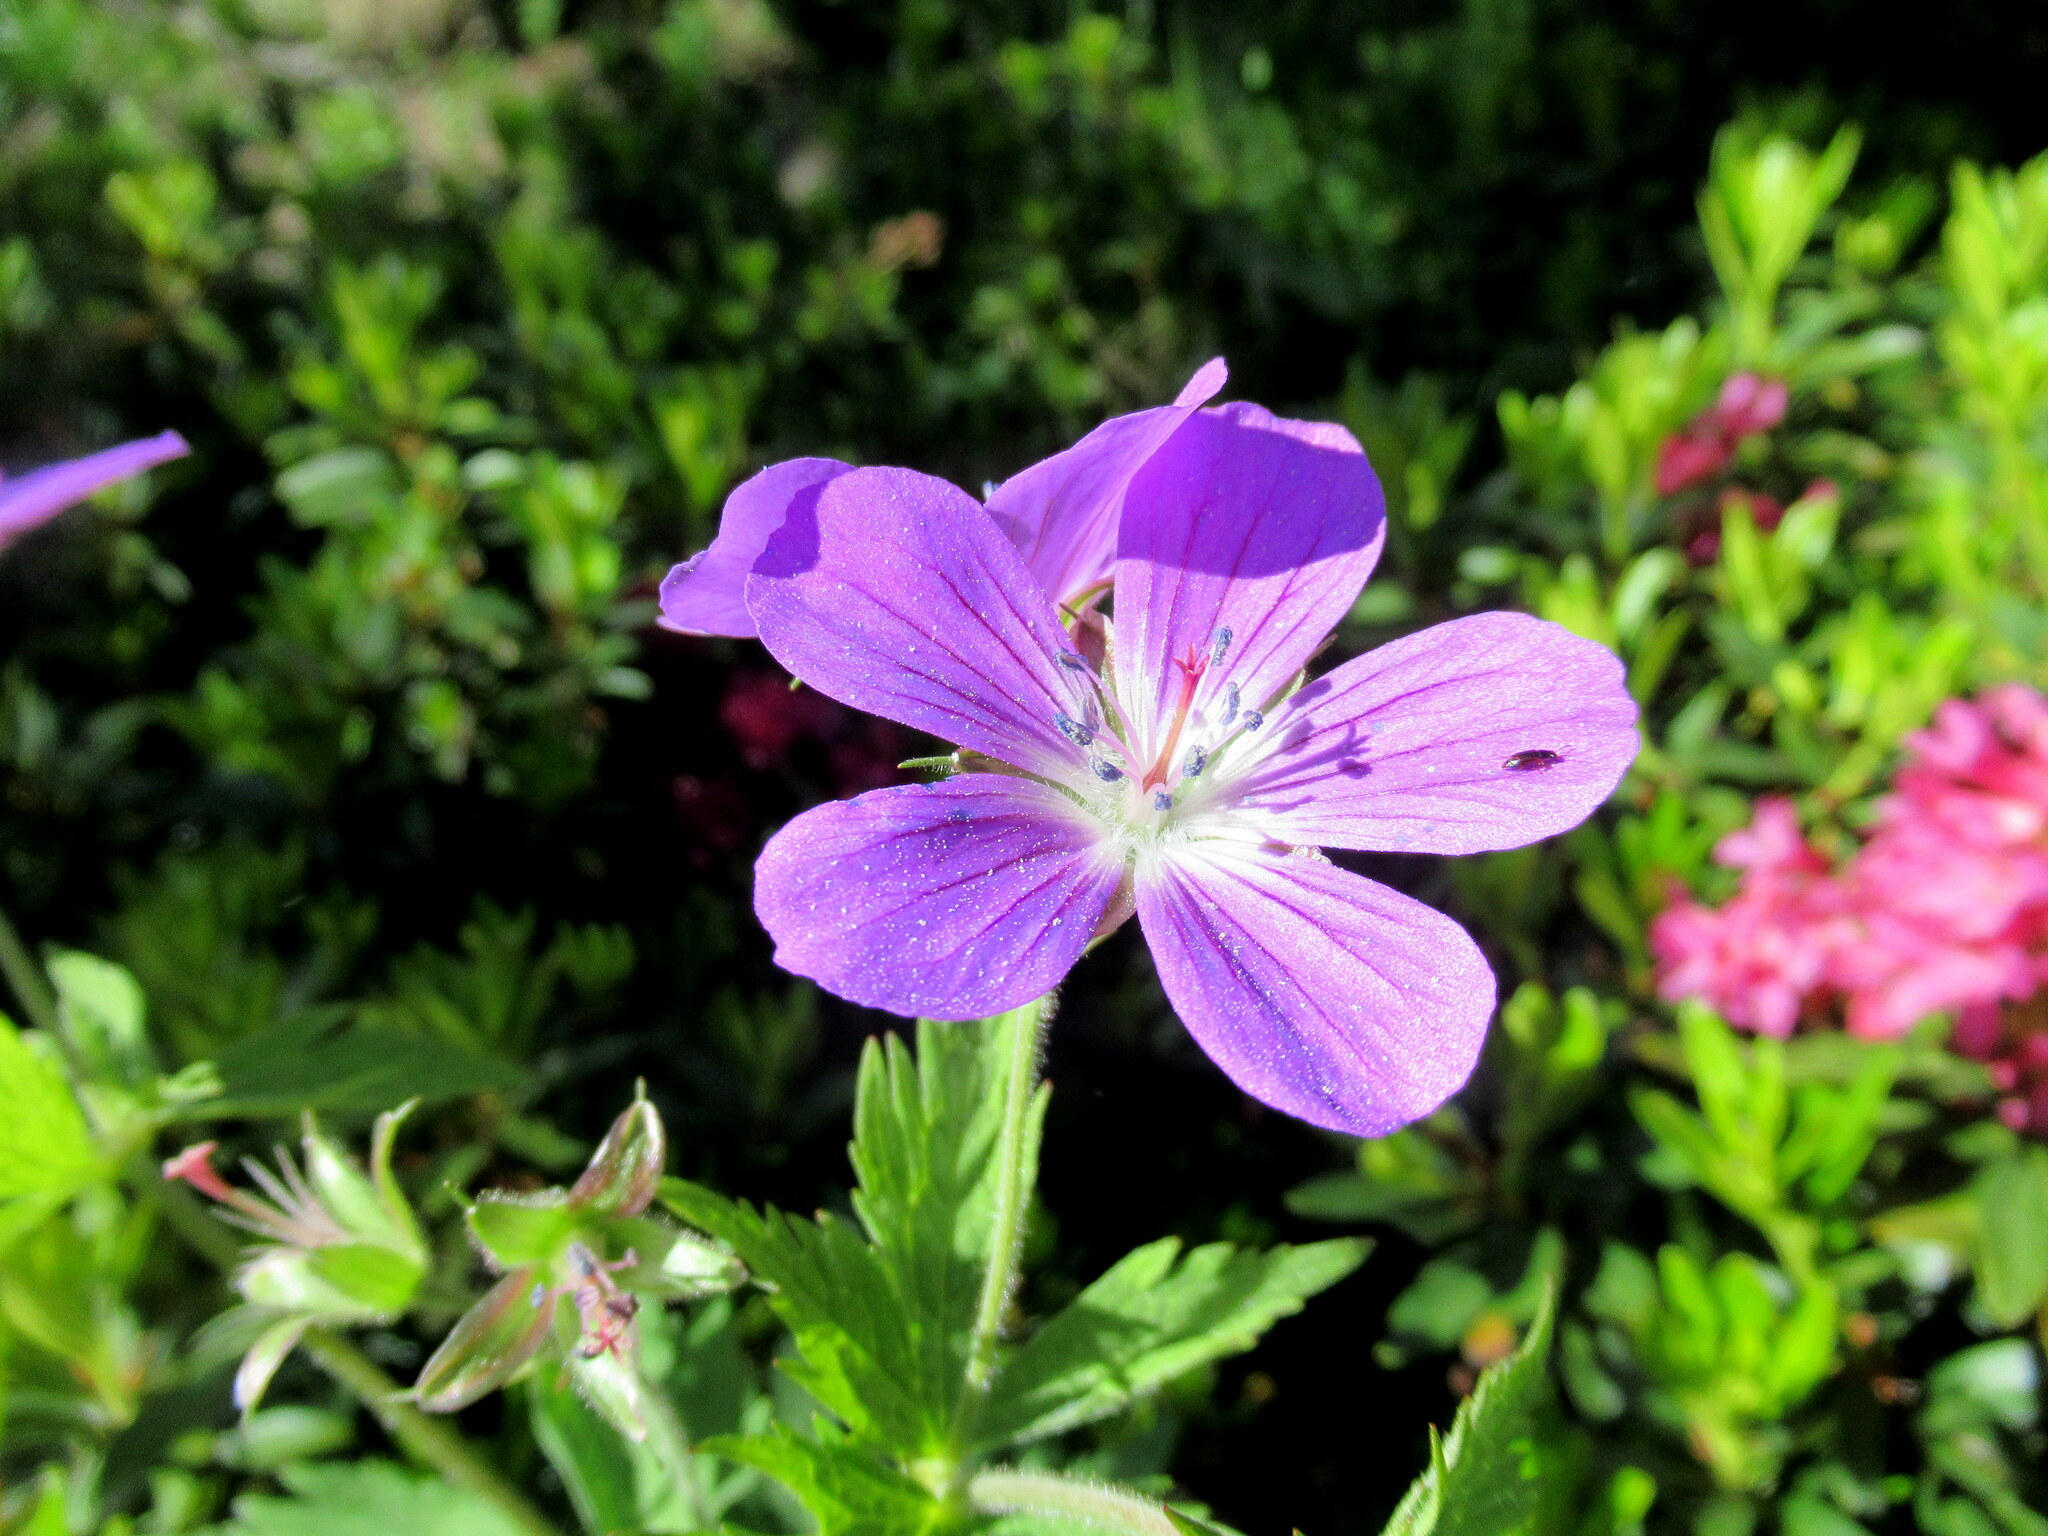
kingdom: Plantae
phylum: Tracheophyta
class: Magnoliopsida
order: Geraniales
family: Geraniaceae
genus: Geranium
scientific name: Geranium sylvaticum
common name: Wood crane's-bill
